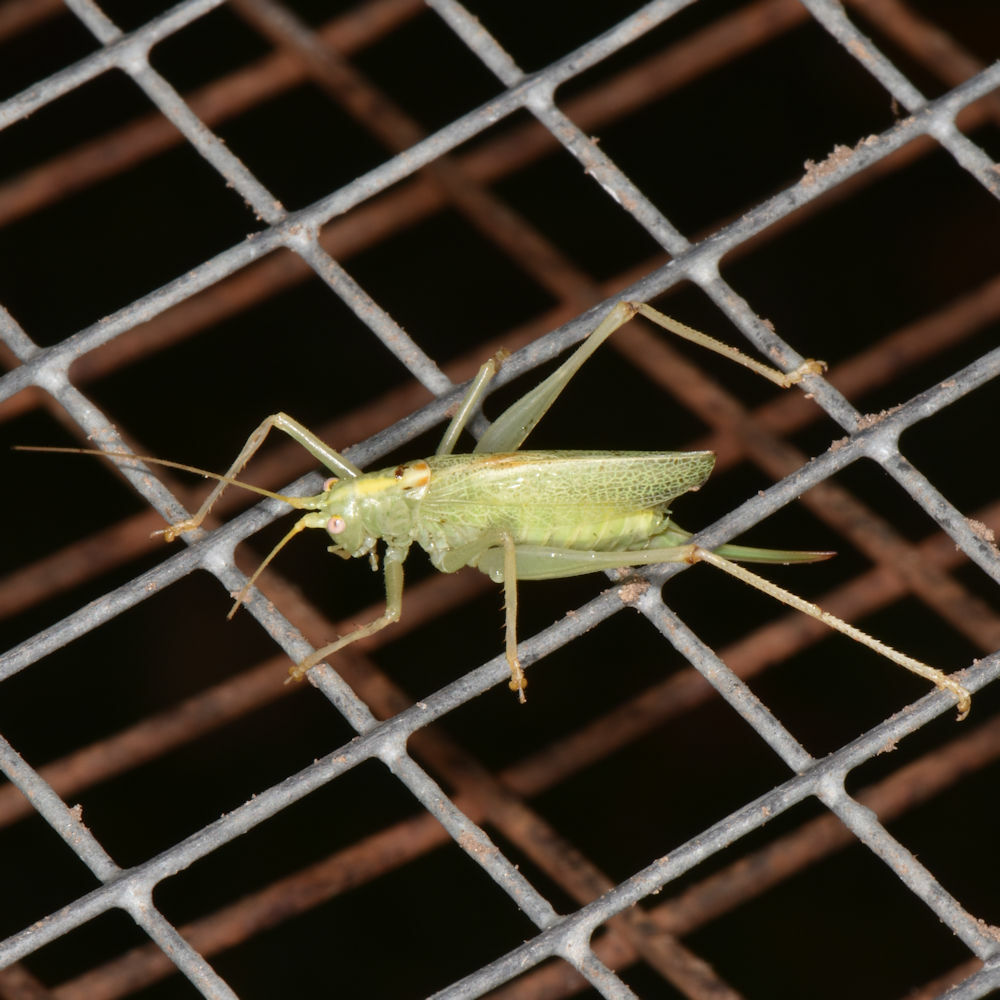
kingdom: Animalia
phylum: Arthropoda
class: Insecta
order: Orthoptera
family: Tettigoniidae
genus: Meconema
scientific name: Meconema thalassinum
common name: Oak bush-cricket
